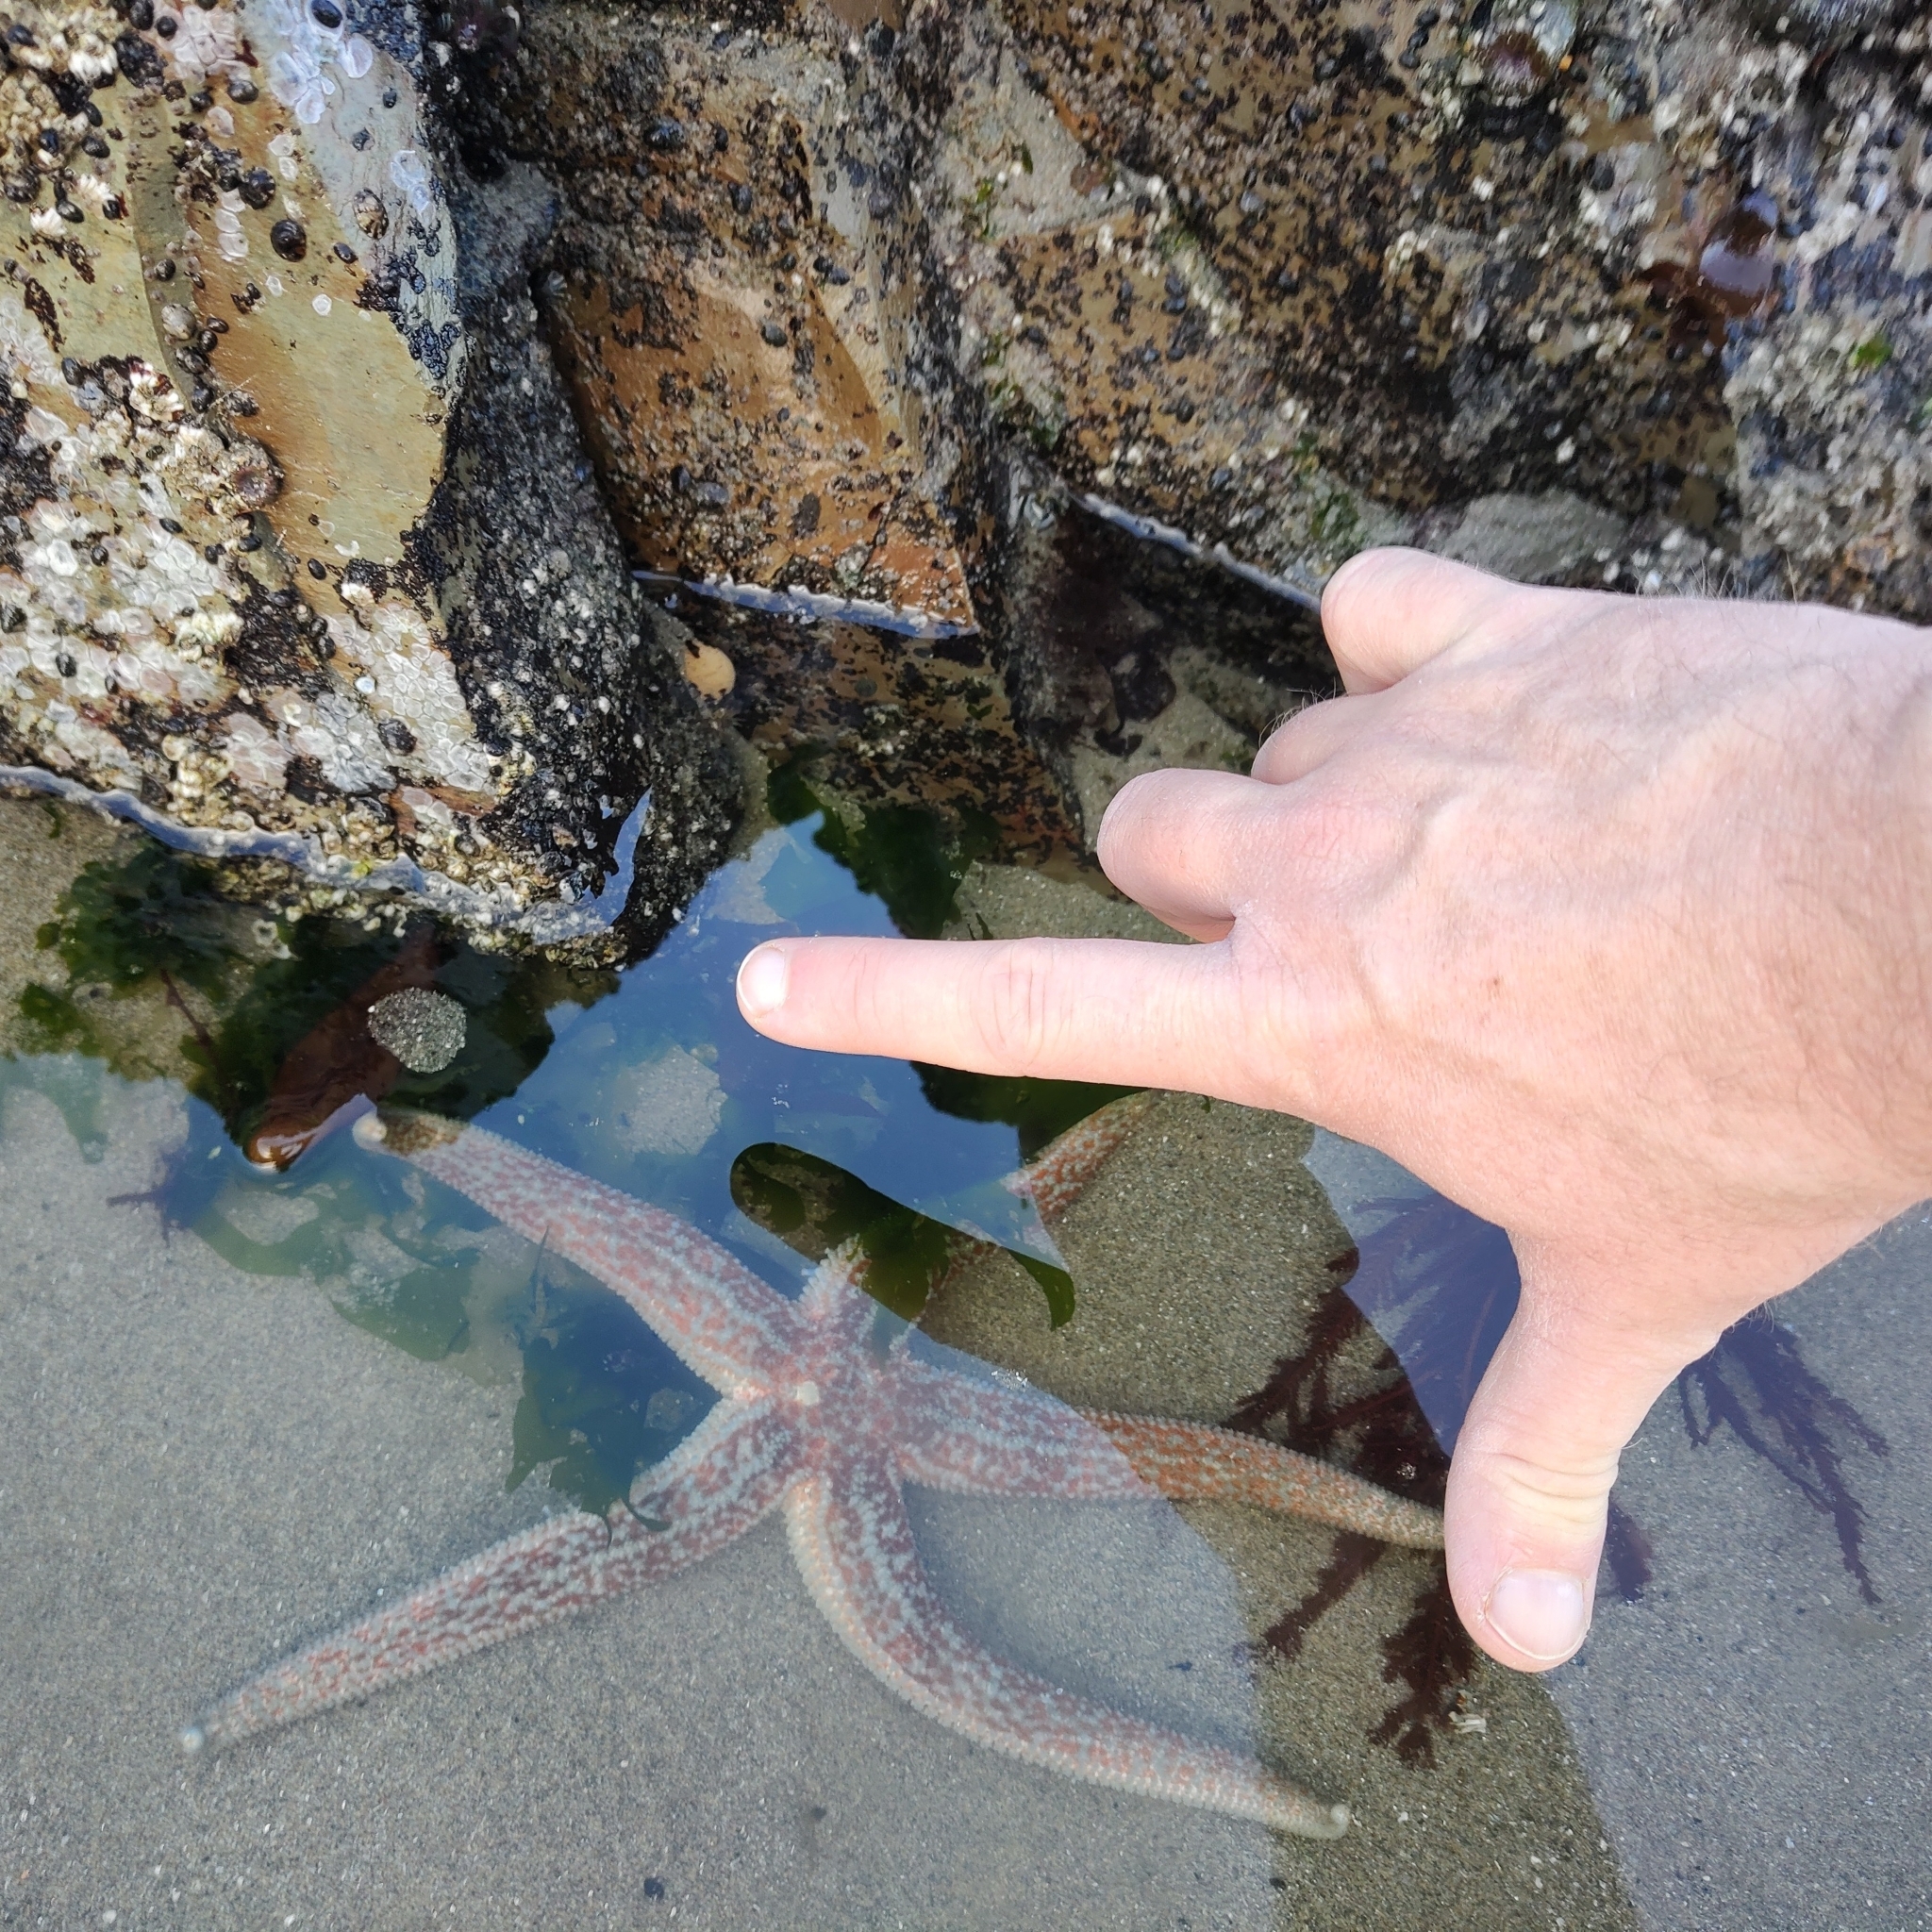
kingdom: Animalia
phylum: Echinodermata
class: Asteroidea
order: Forcipulatida
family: Asteriidae
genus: Evasterias
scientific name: Evasterias troschelii
